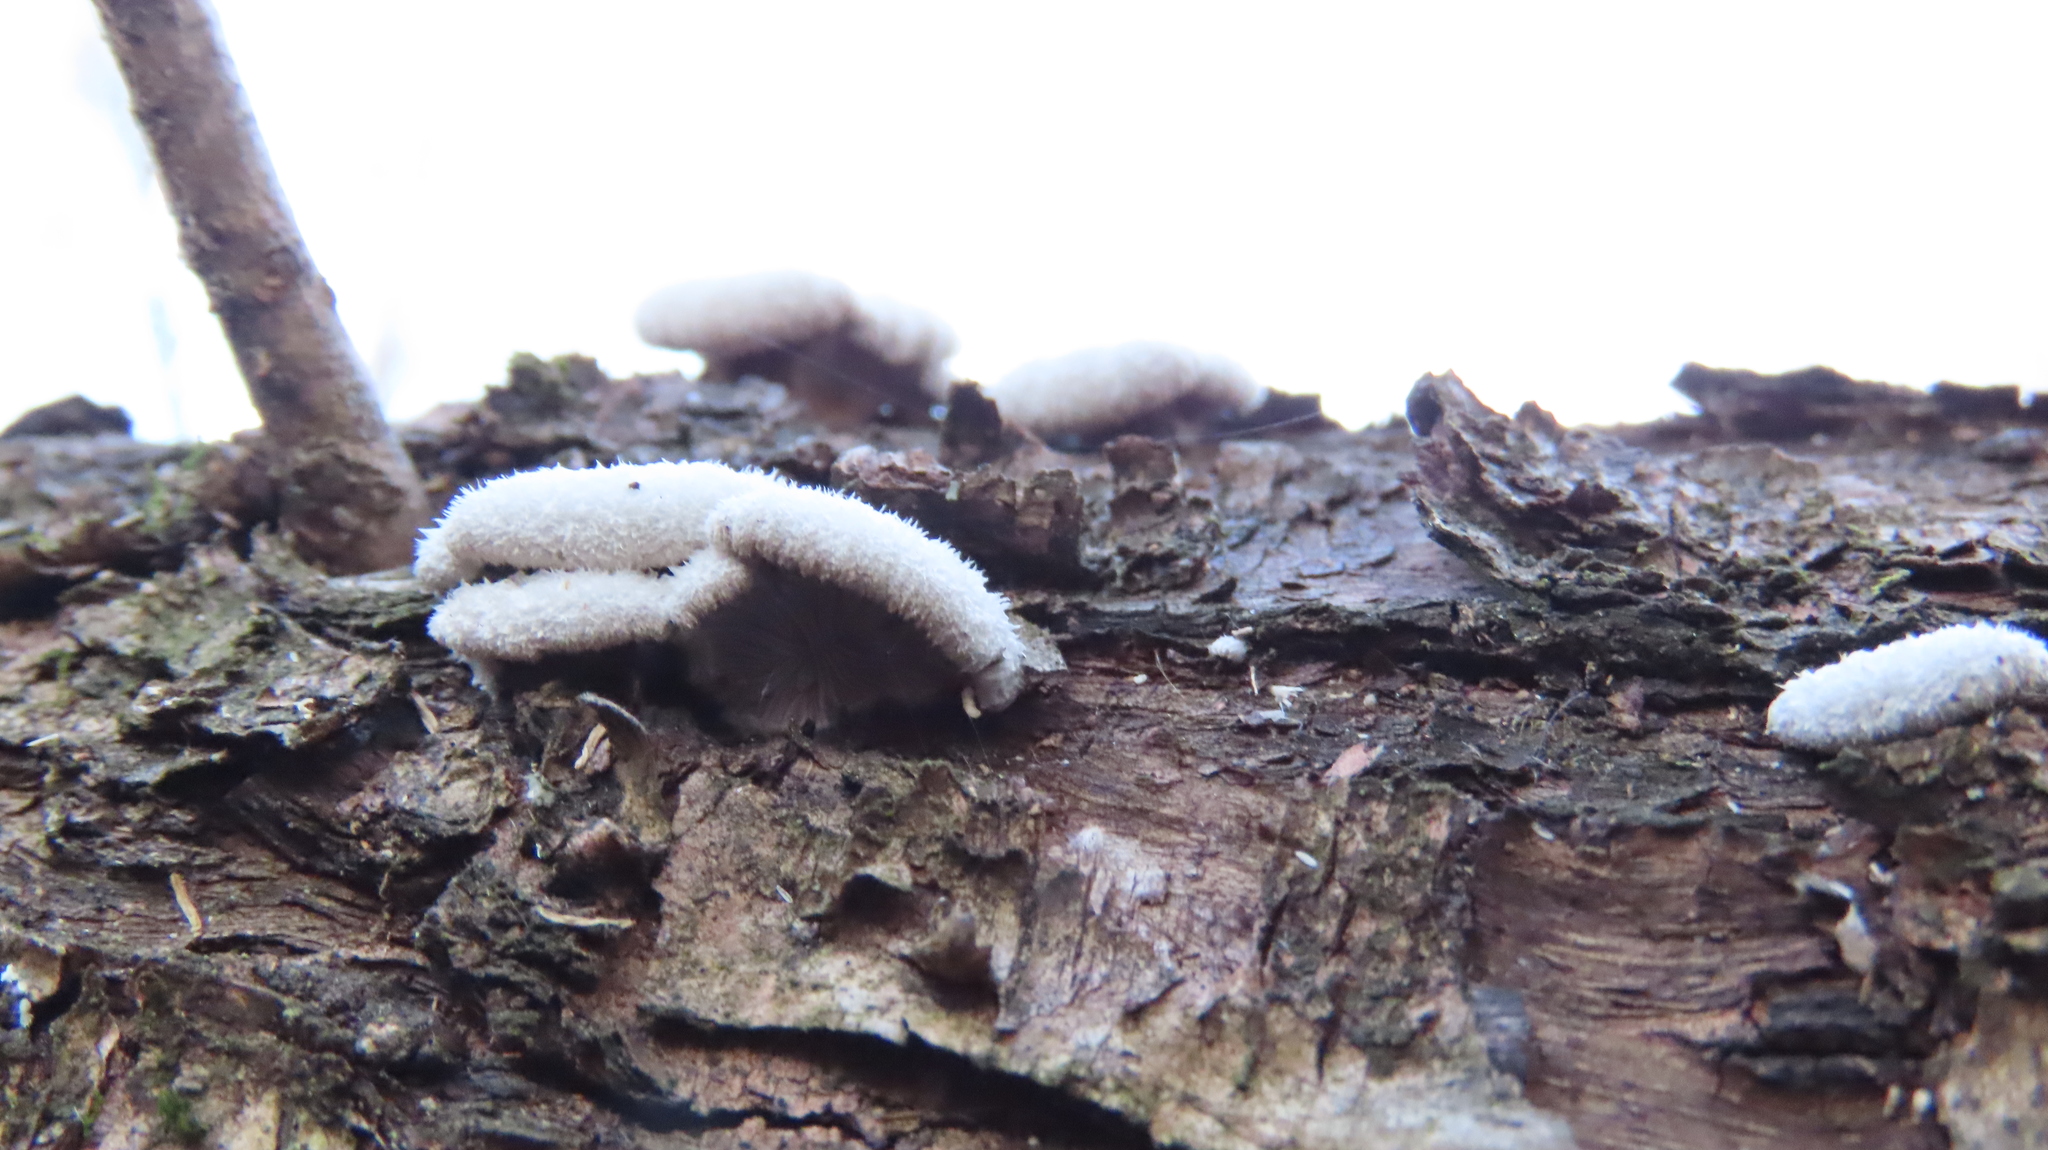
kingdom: Fungi
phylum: Basidiomycota
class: Agaricomycetes
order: Agaricales
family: Schizophyllaceae
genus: Schizophyllum
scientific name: Schizophyllum commune
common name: Common porecrust
